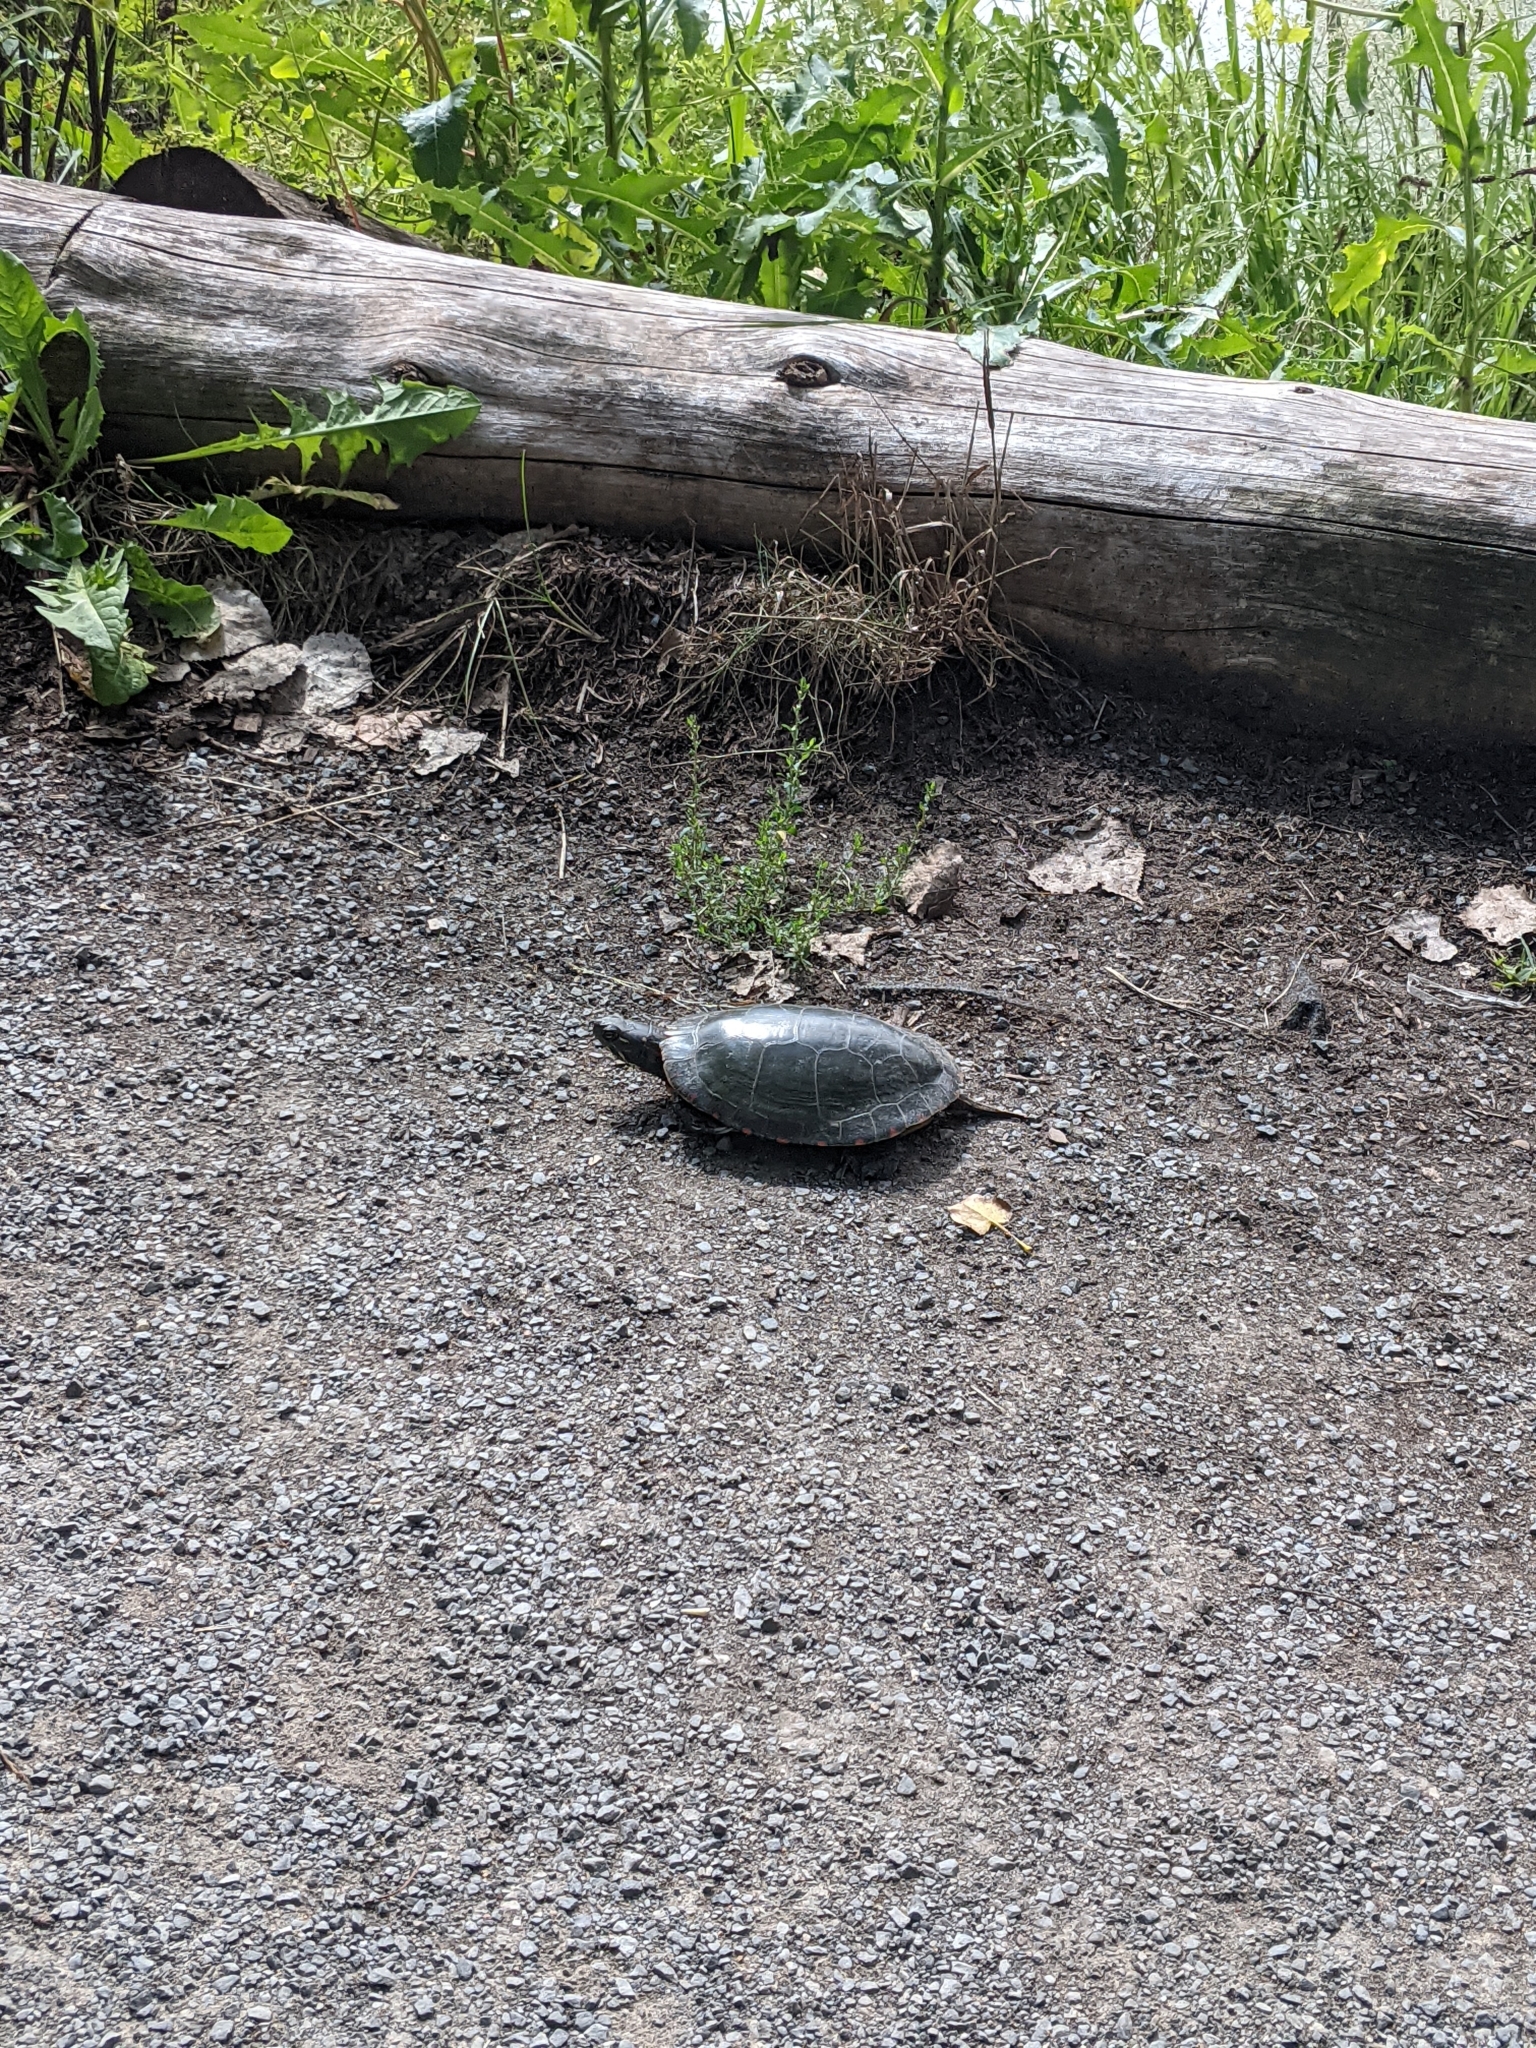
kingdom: Animalia
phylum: Chordata
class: Testudines
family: Emydidae
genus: Chrysemys
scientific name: Chrysemys picta
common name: Painted turtle
